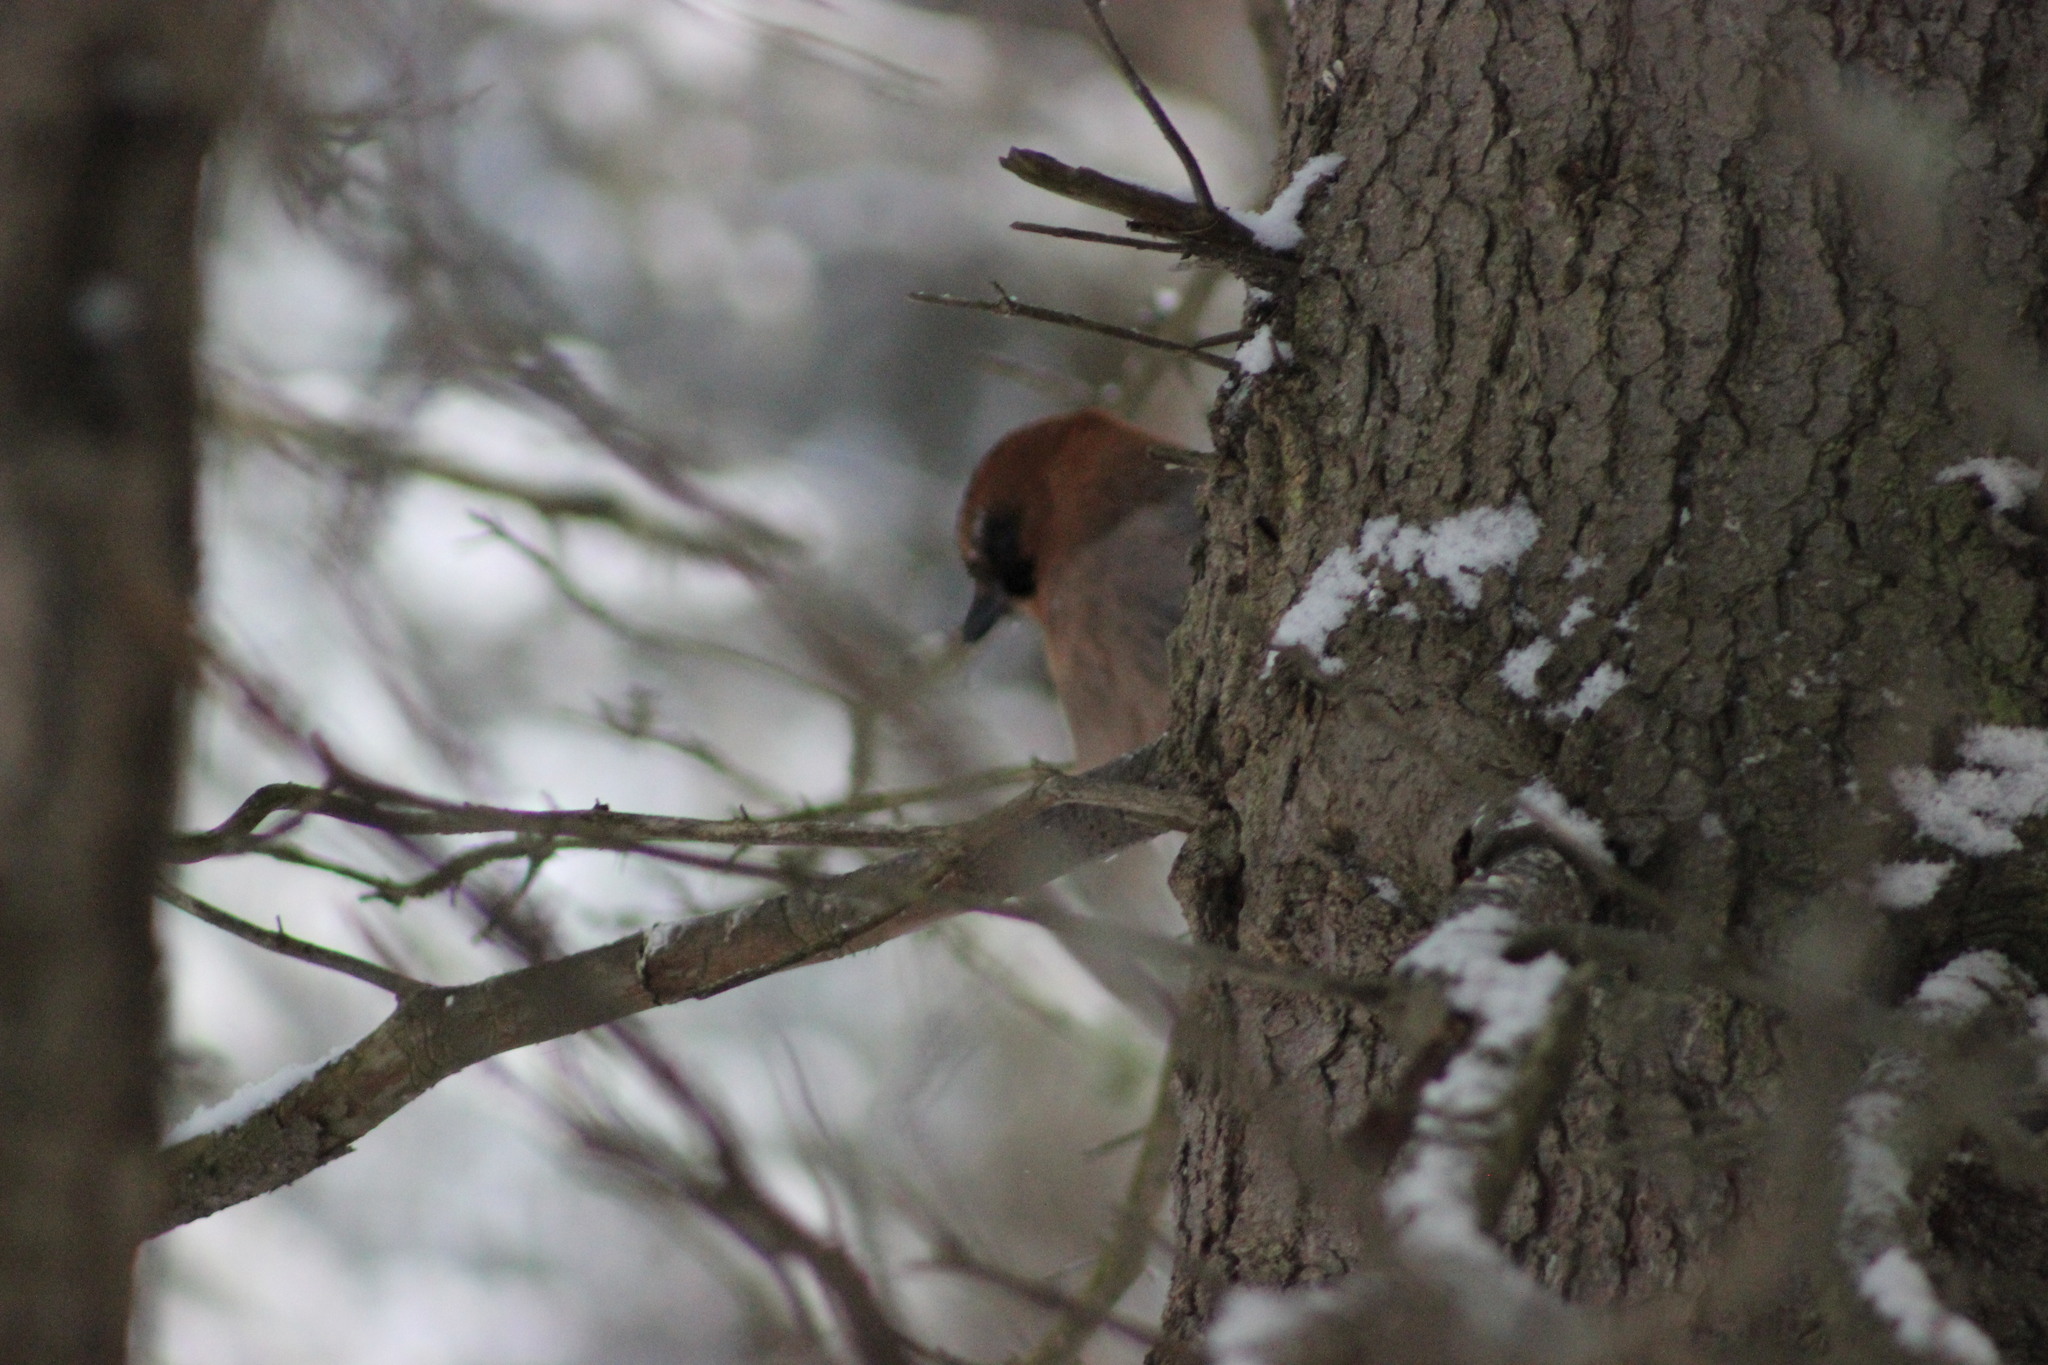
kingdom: Animalia
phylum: Chordata
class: Aves
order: Passeriformes
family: Corvidae
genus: Garrulus
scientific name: Garrulus glandarius
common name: Eurasian jay
